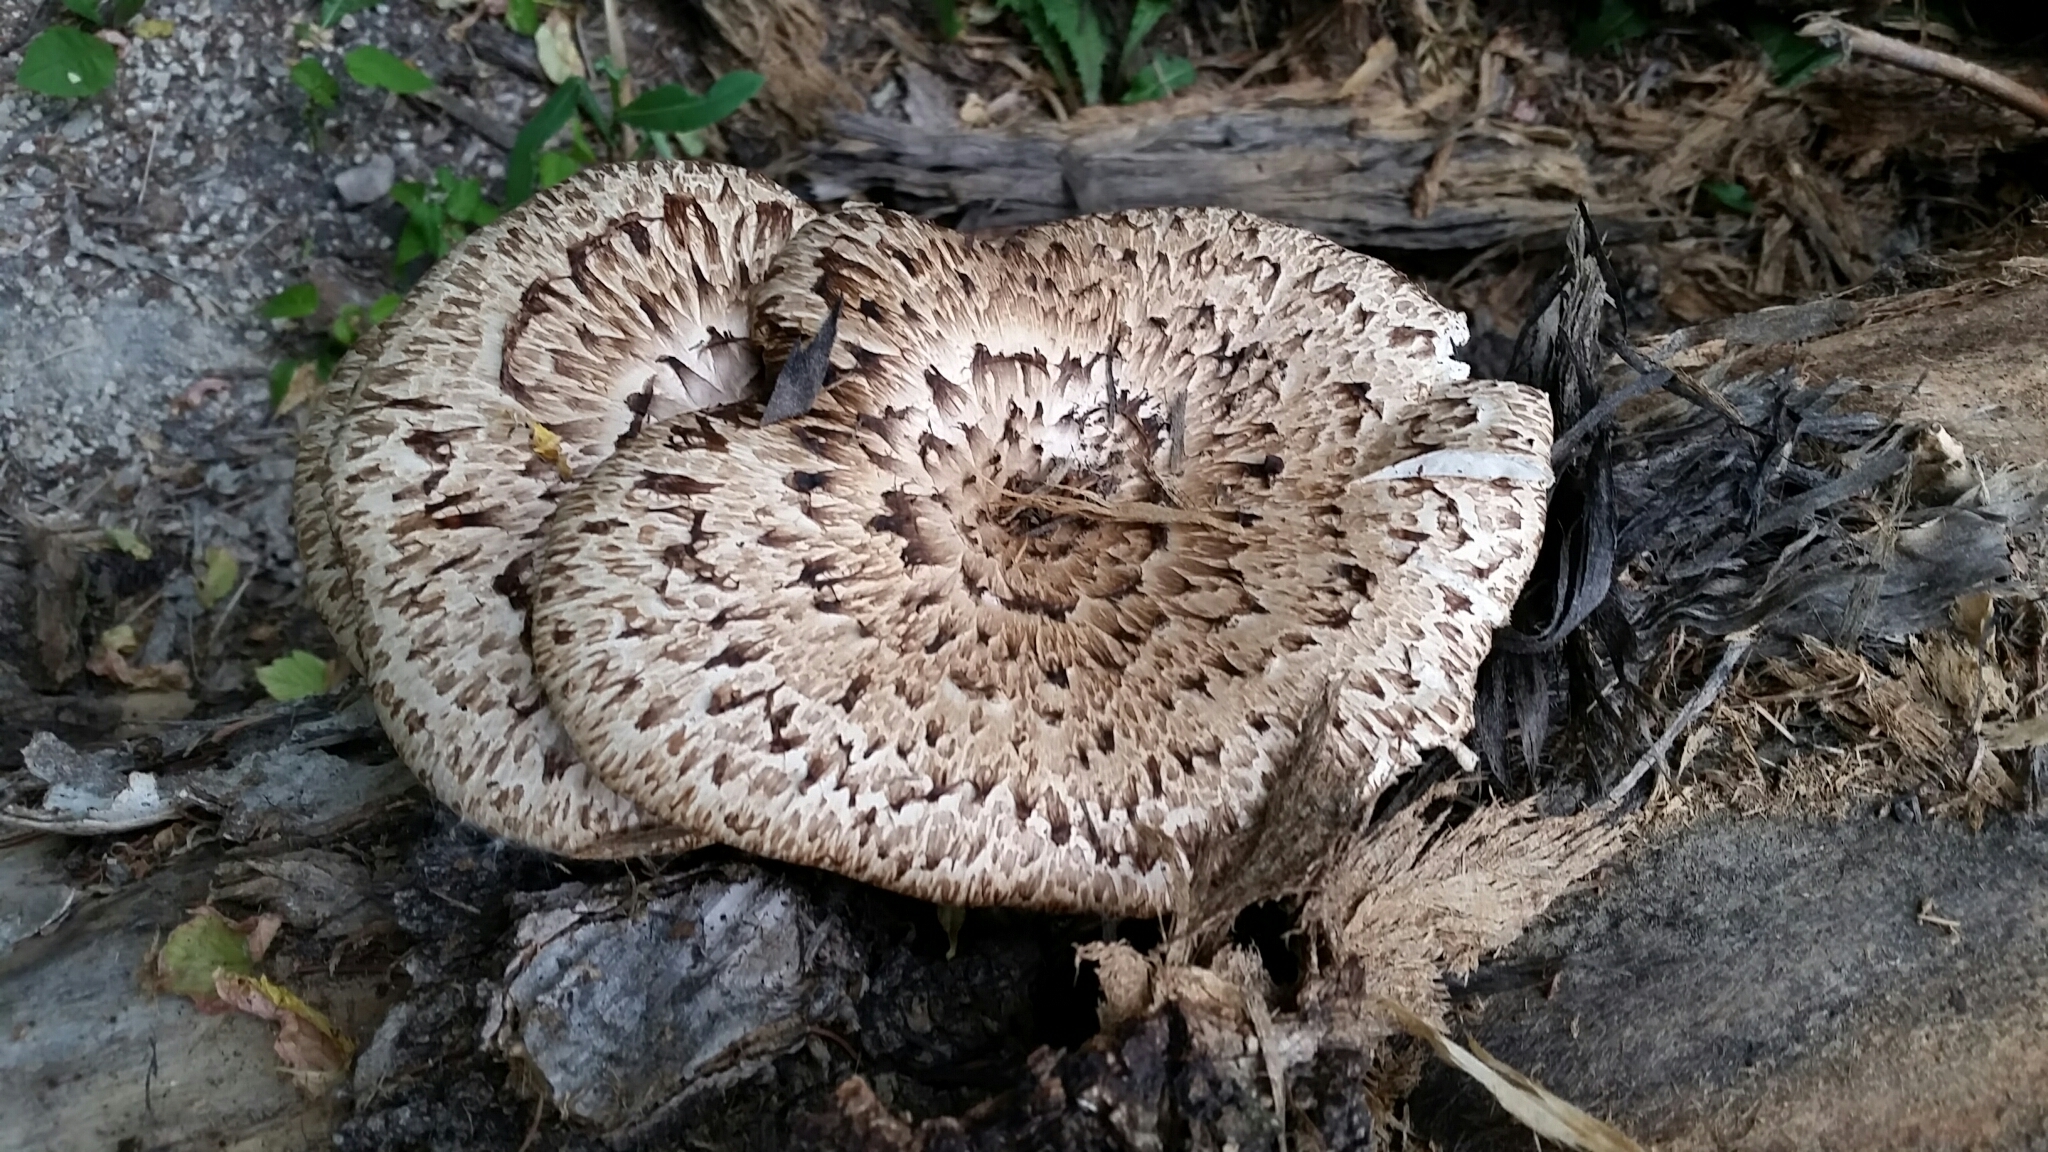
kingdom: Fungi
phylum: Basidiomycota
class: Agaricomycetes
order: Polyporales
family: Polyporaceae
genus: Cerioporus
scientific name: Cerioporus squamosus
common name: Dryad's saddle
